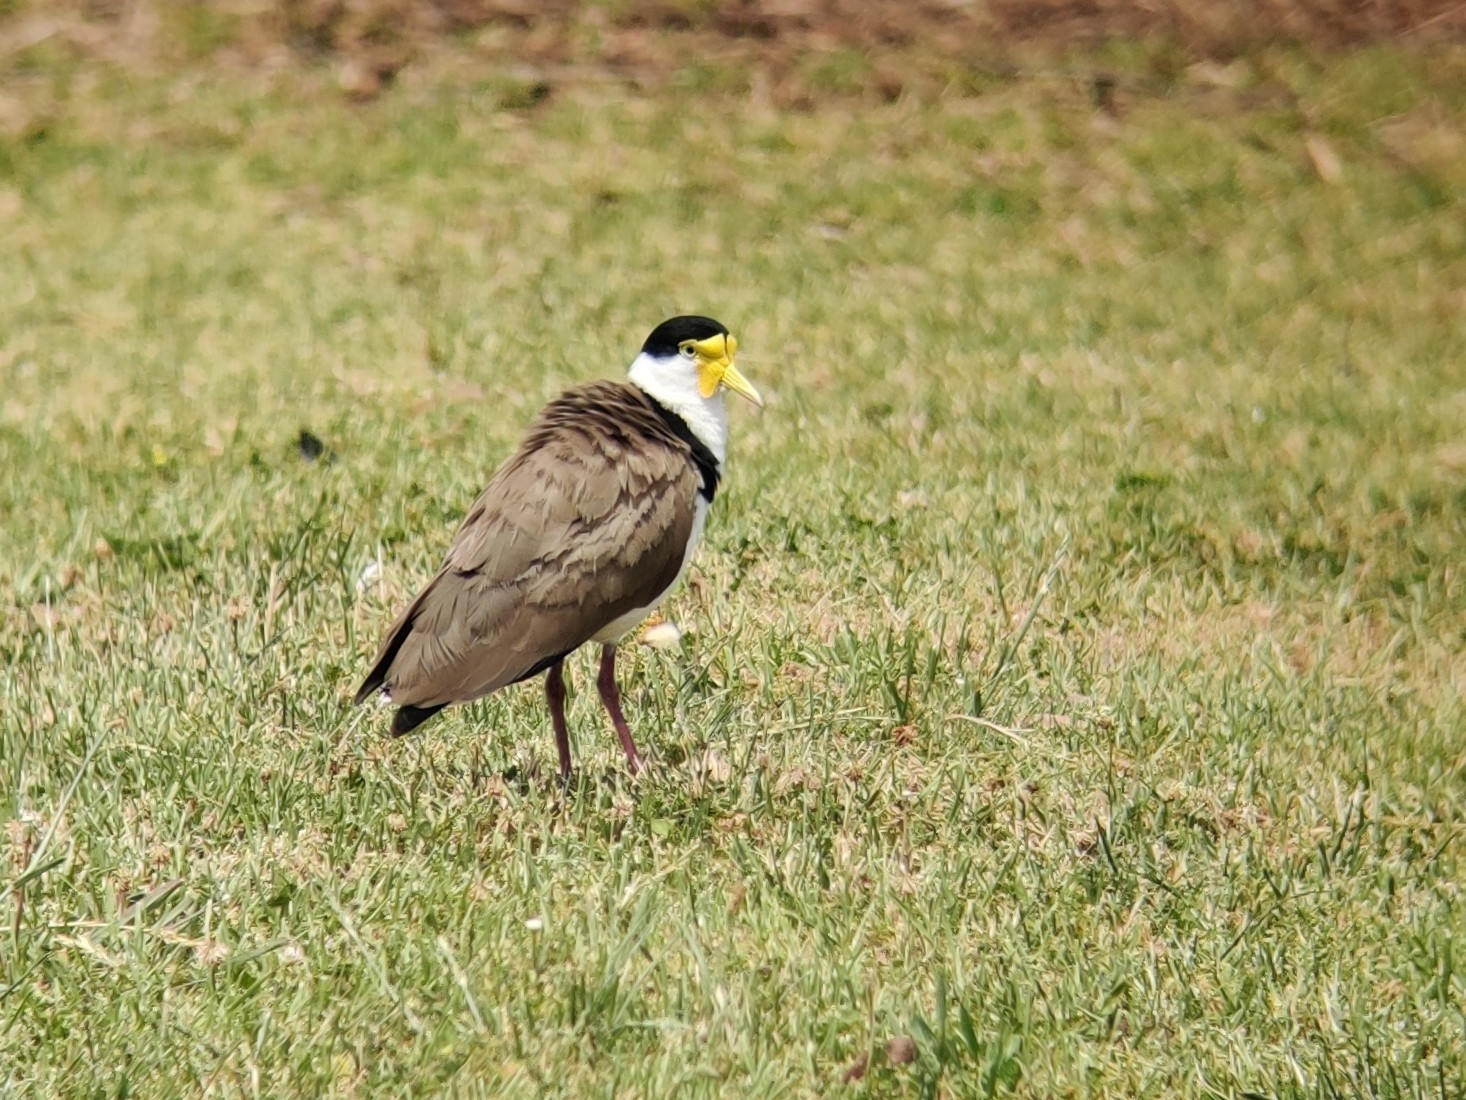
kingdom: Animalia
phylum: Chordata
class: Aves
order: Charadriiformes
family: Charadriidae
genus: Vanellus
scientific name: Vanellus miles
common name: Masked lapwing
